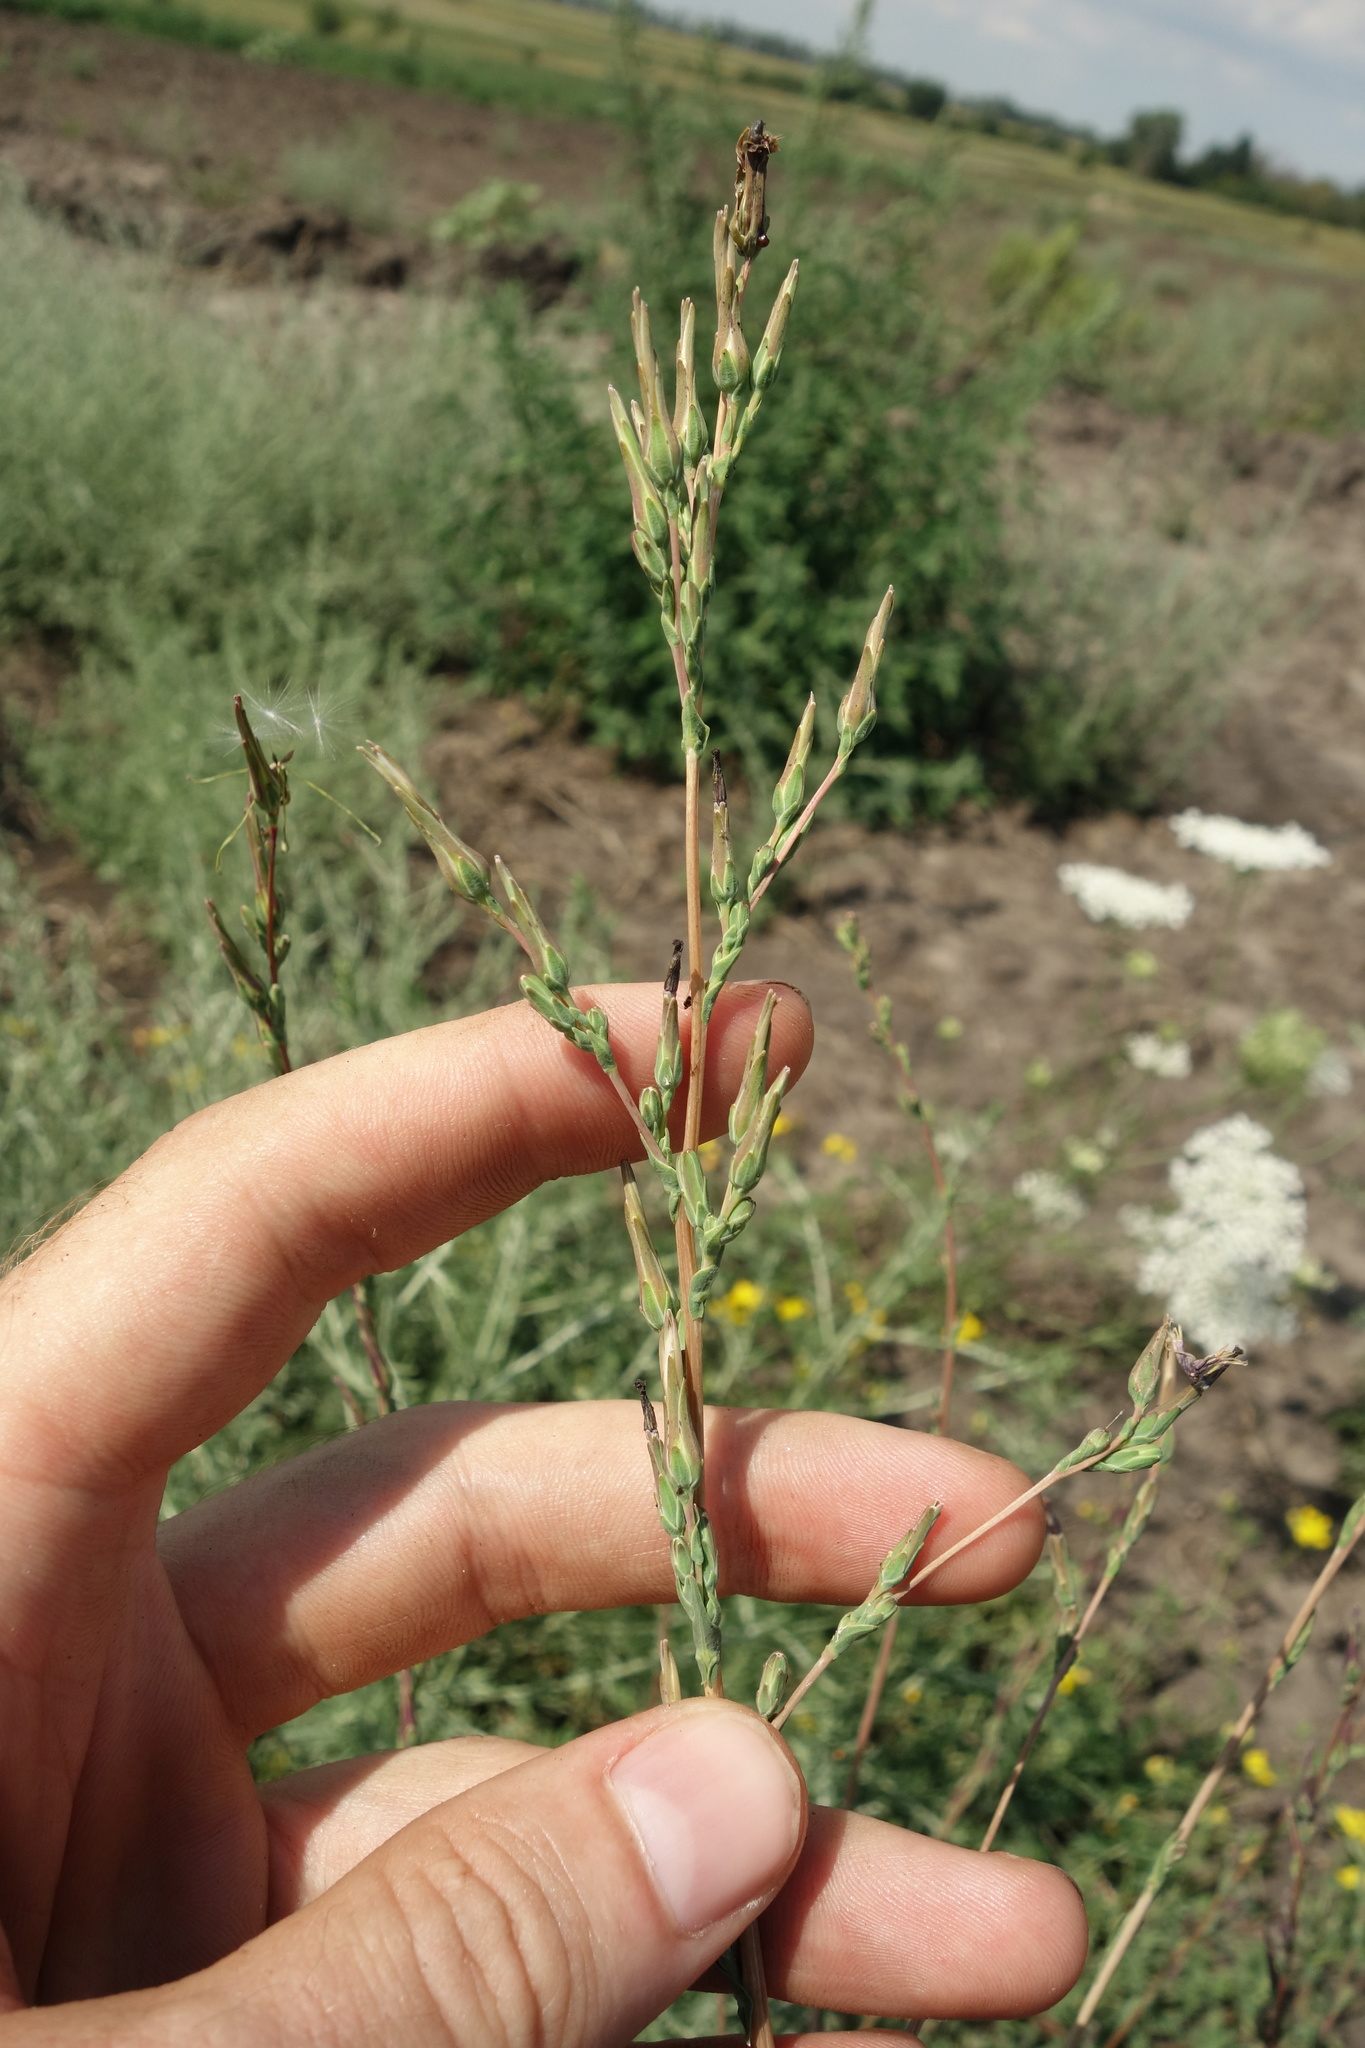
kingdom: Plantae
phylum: Tracheophyta
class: Magnoliopsida
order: Asterales
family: Asteraceae
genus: Lactuca
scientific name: Lactuca saligna
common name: Wild lettuce
